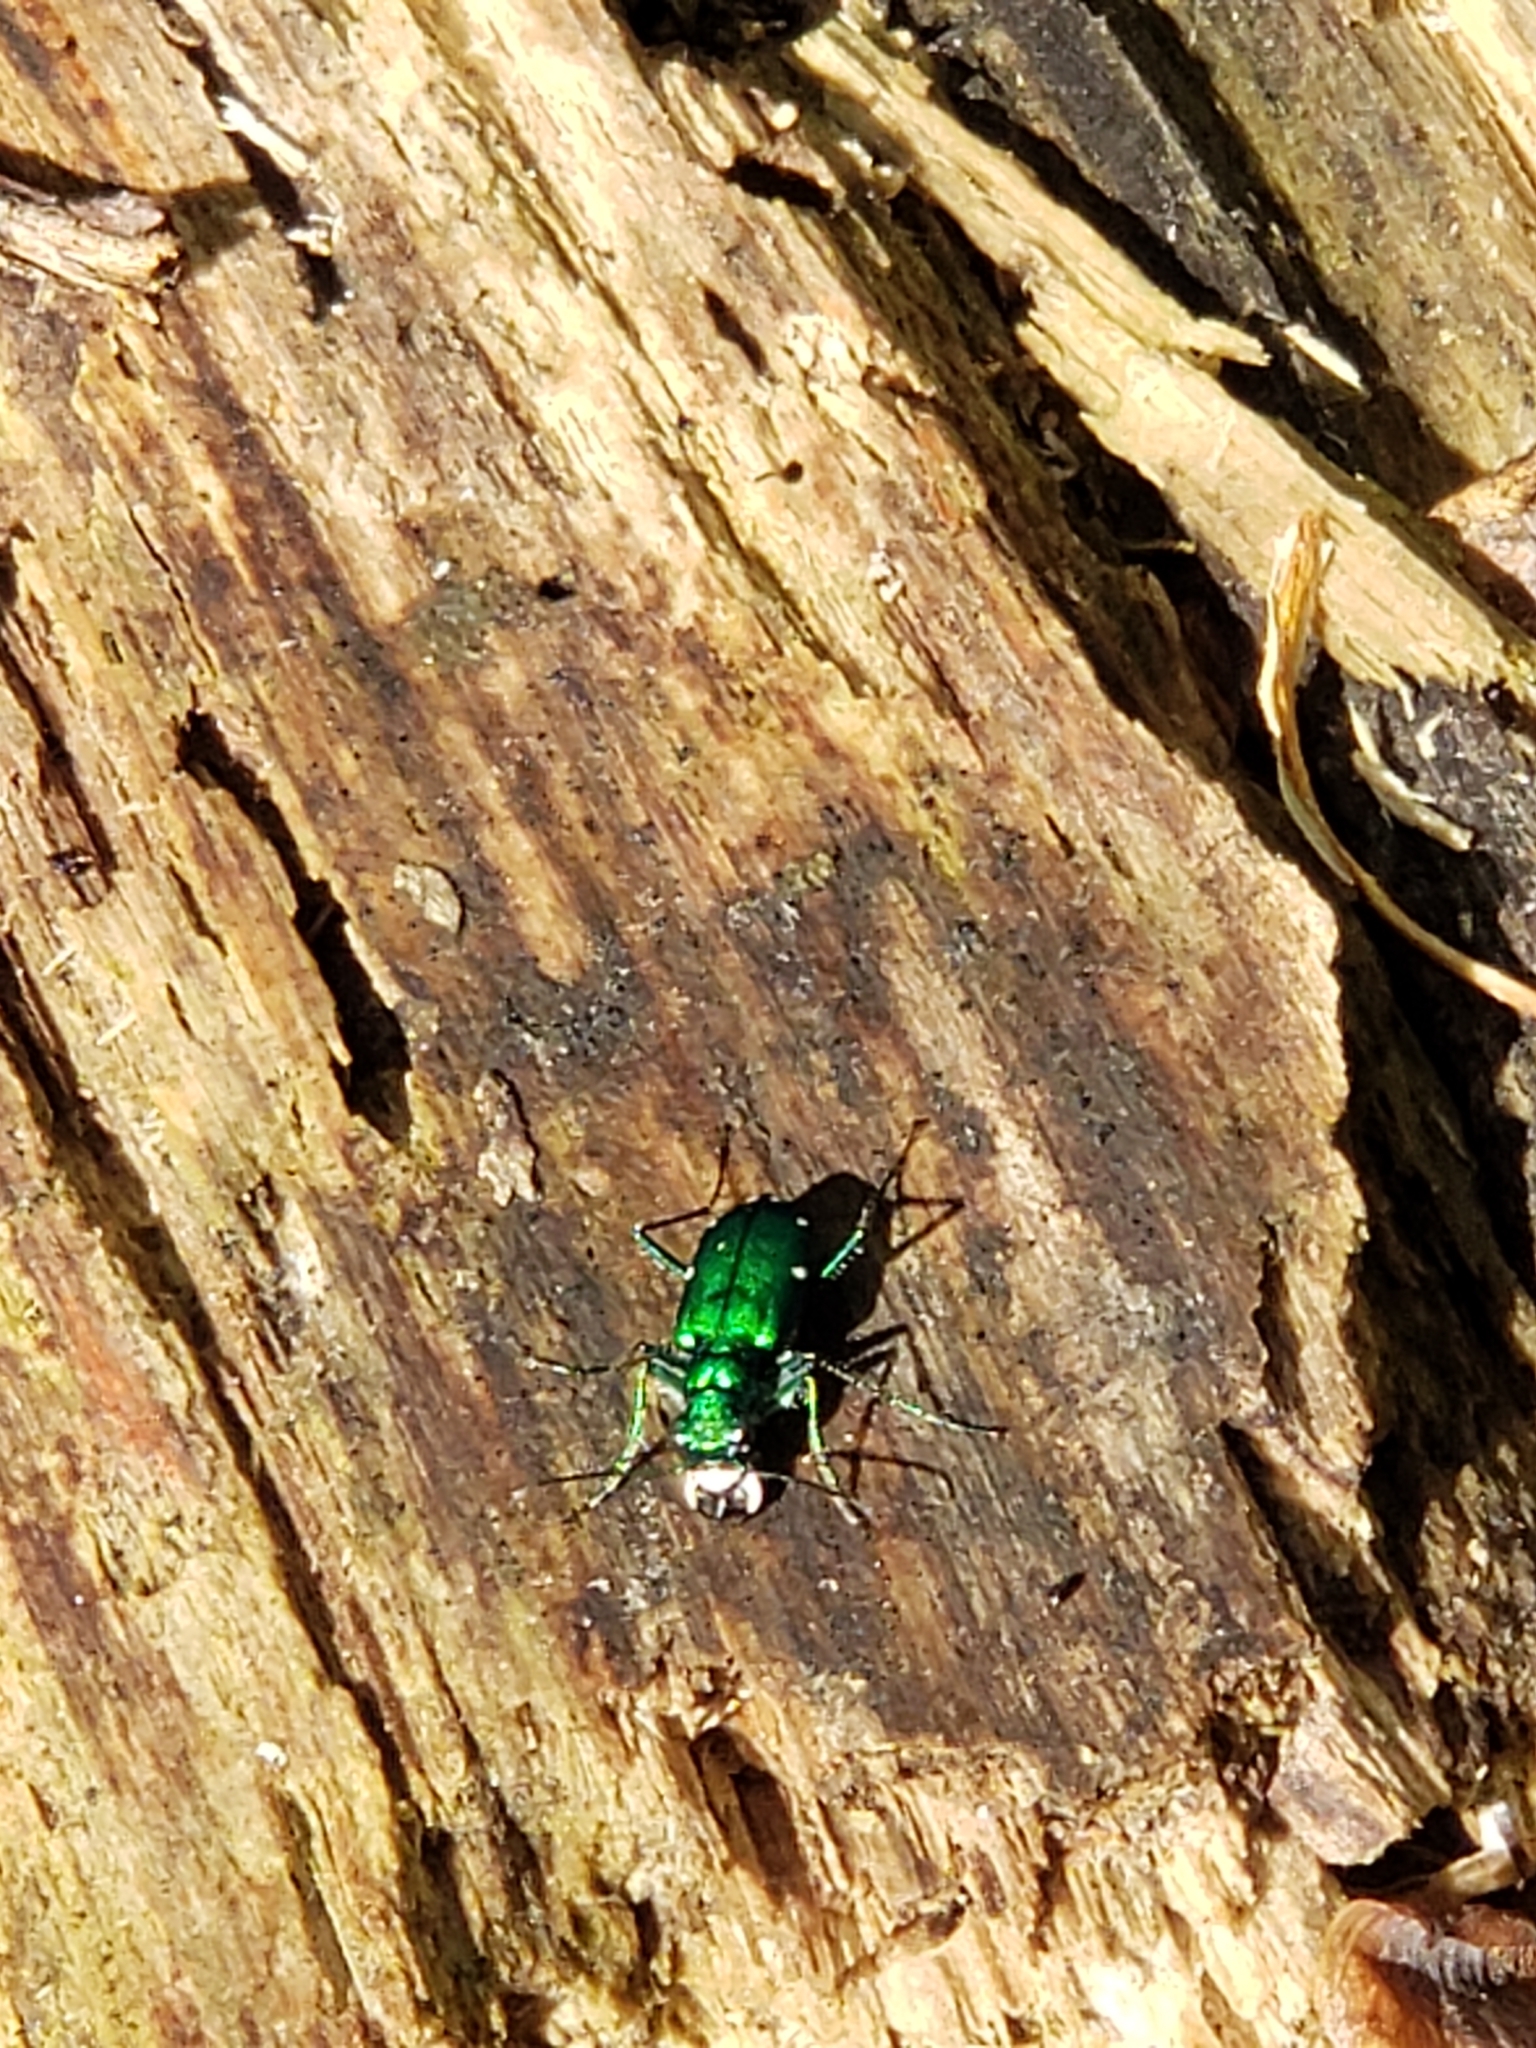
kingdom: Animalia
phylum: Arthropoda
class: Insecta
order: Coleoptera
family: Carabidae
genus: Cicindela
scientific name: Cicindela sexguttata
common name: Six-spotted tiger beetle
